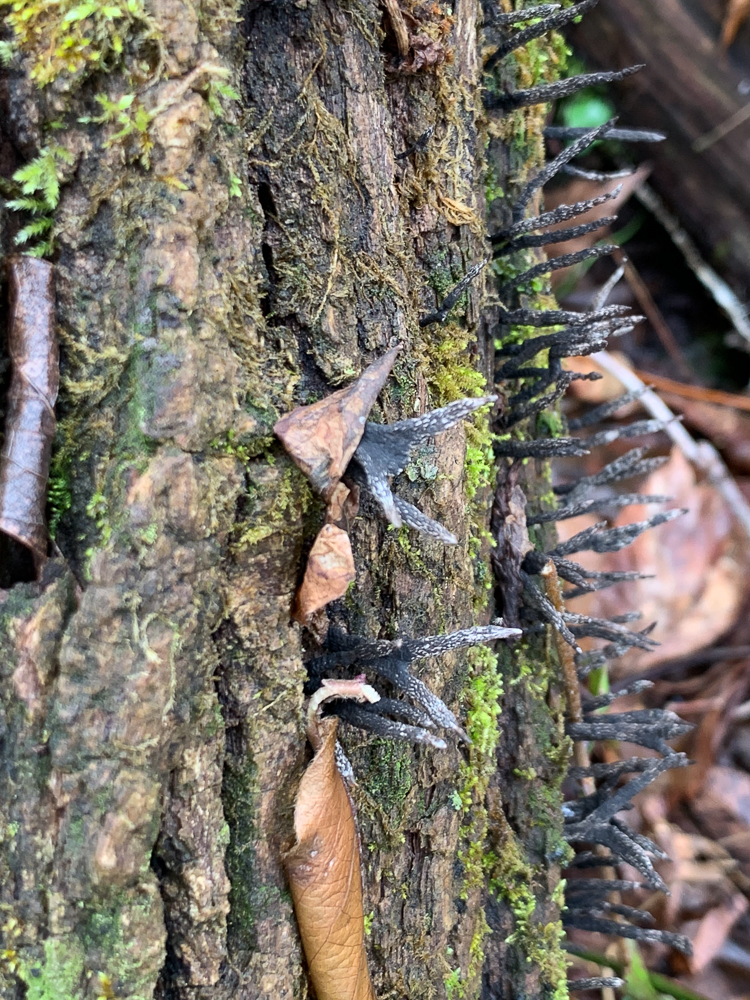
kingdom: Fungi
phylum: Ascomycota
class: Sordariomycetes
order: Xylariales
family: Xylariaceae
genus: Xylaria
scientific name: Xylaria hypoxylon
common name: Candle-snuff fungus
